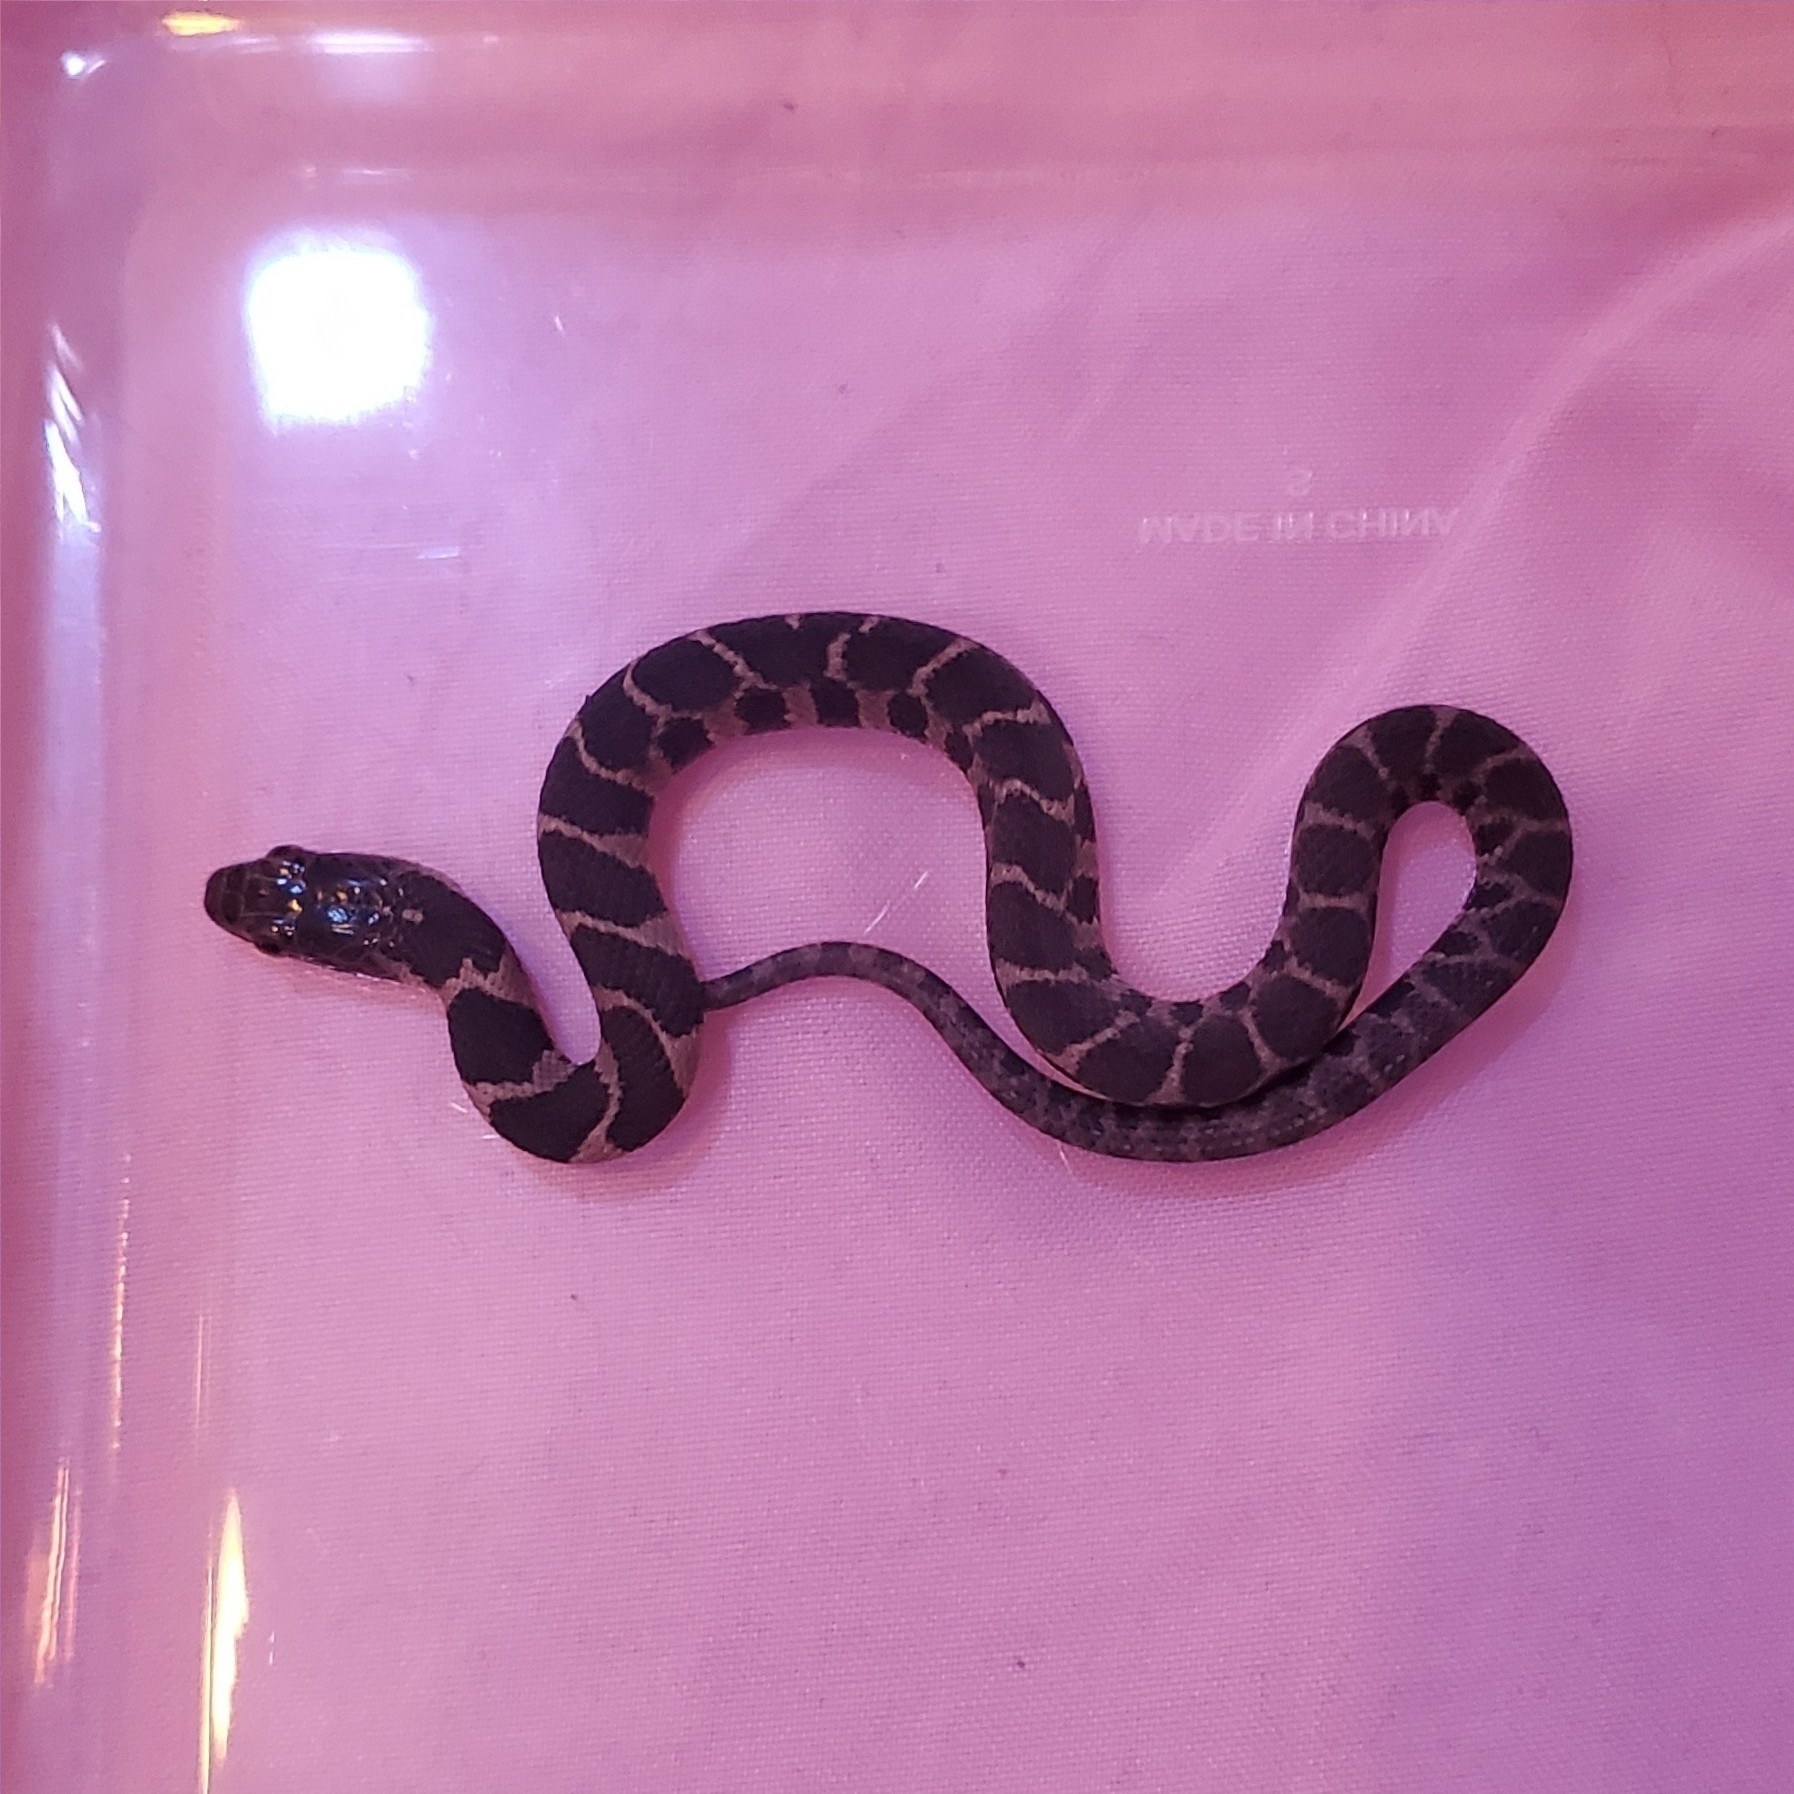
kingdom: Animalia
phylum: Chordata
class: Squamata
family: Colubridae
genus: Nerodia
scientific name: Nerodia sipedon
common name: Northern water snake
